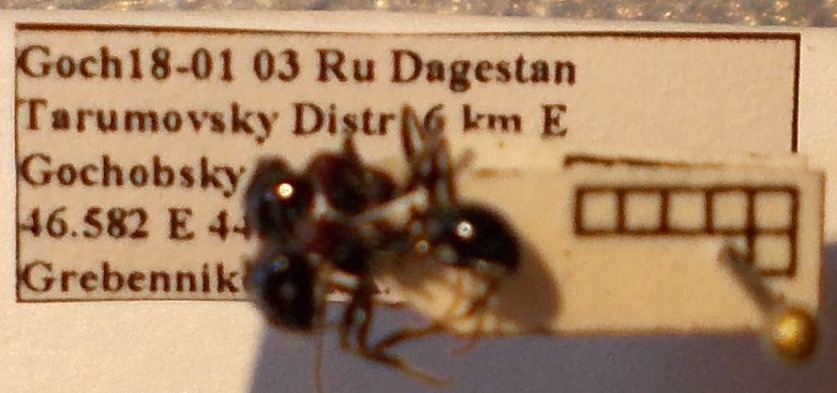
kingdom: Animalia
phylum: Arthropoda
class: Insecta
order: Hymenoptera
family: Formicidae
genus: Messor
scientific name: Messor denticulatus
